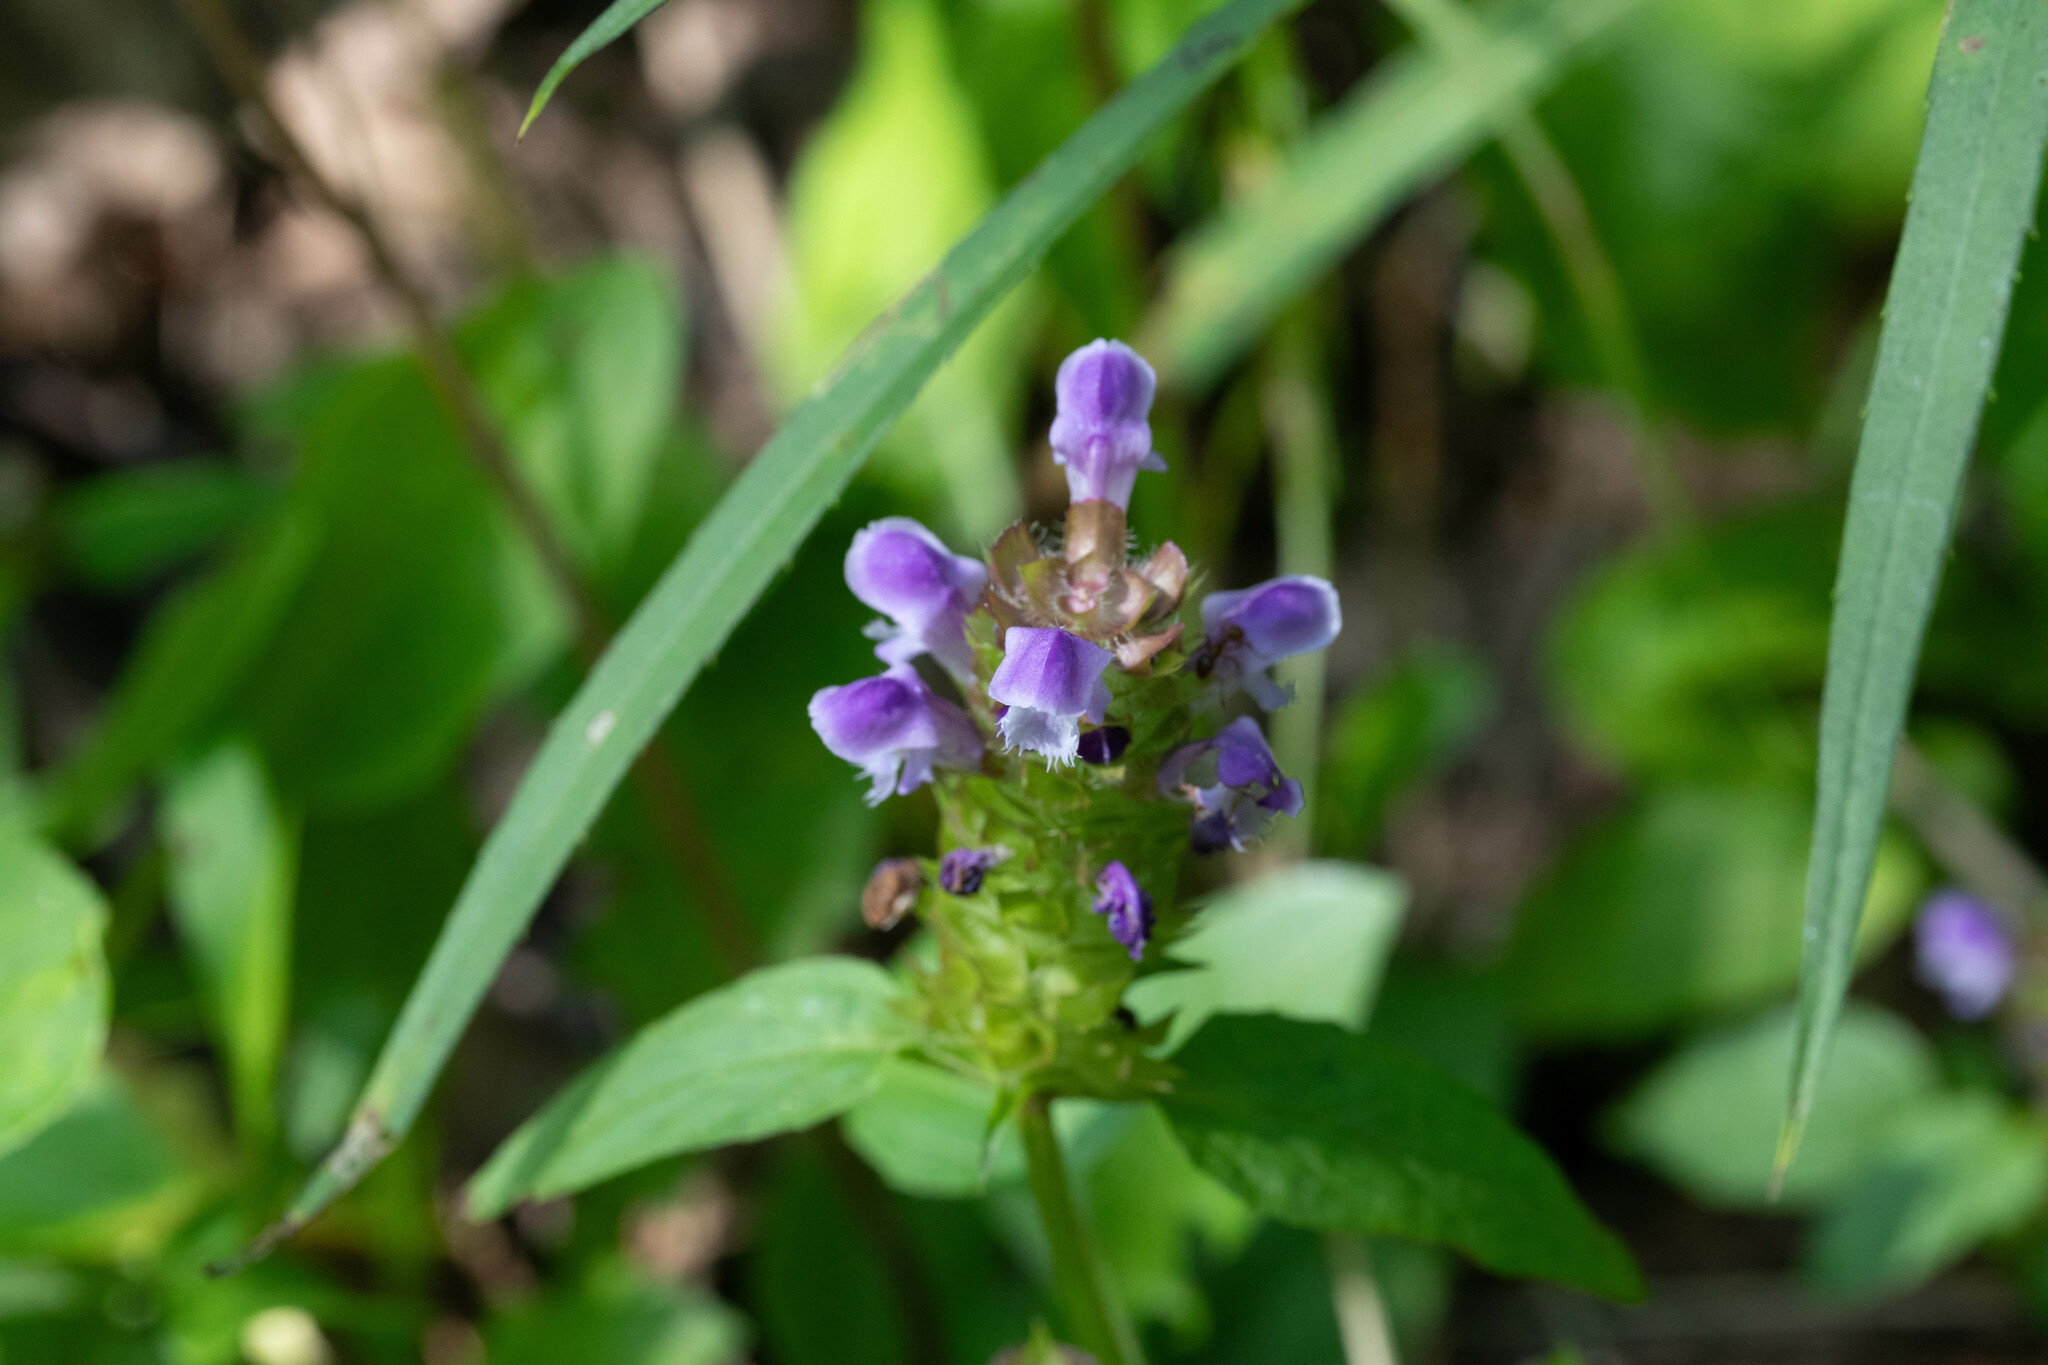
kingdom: Plantae
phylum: Tracheophyta
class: Magnoliopsida
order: Lamiales
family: Lamiaceae
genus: Prunella
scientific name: Prunella vulgaris
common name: Heal-all
